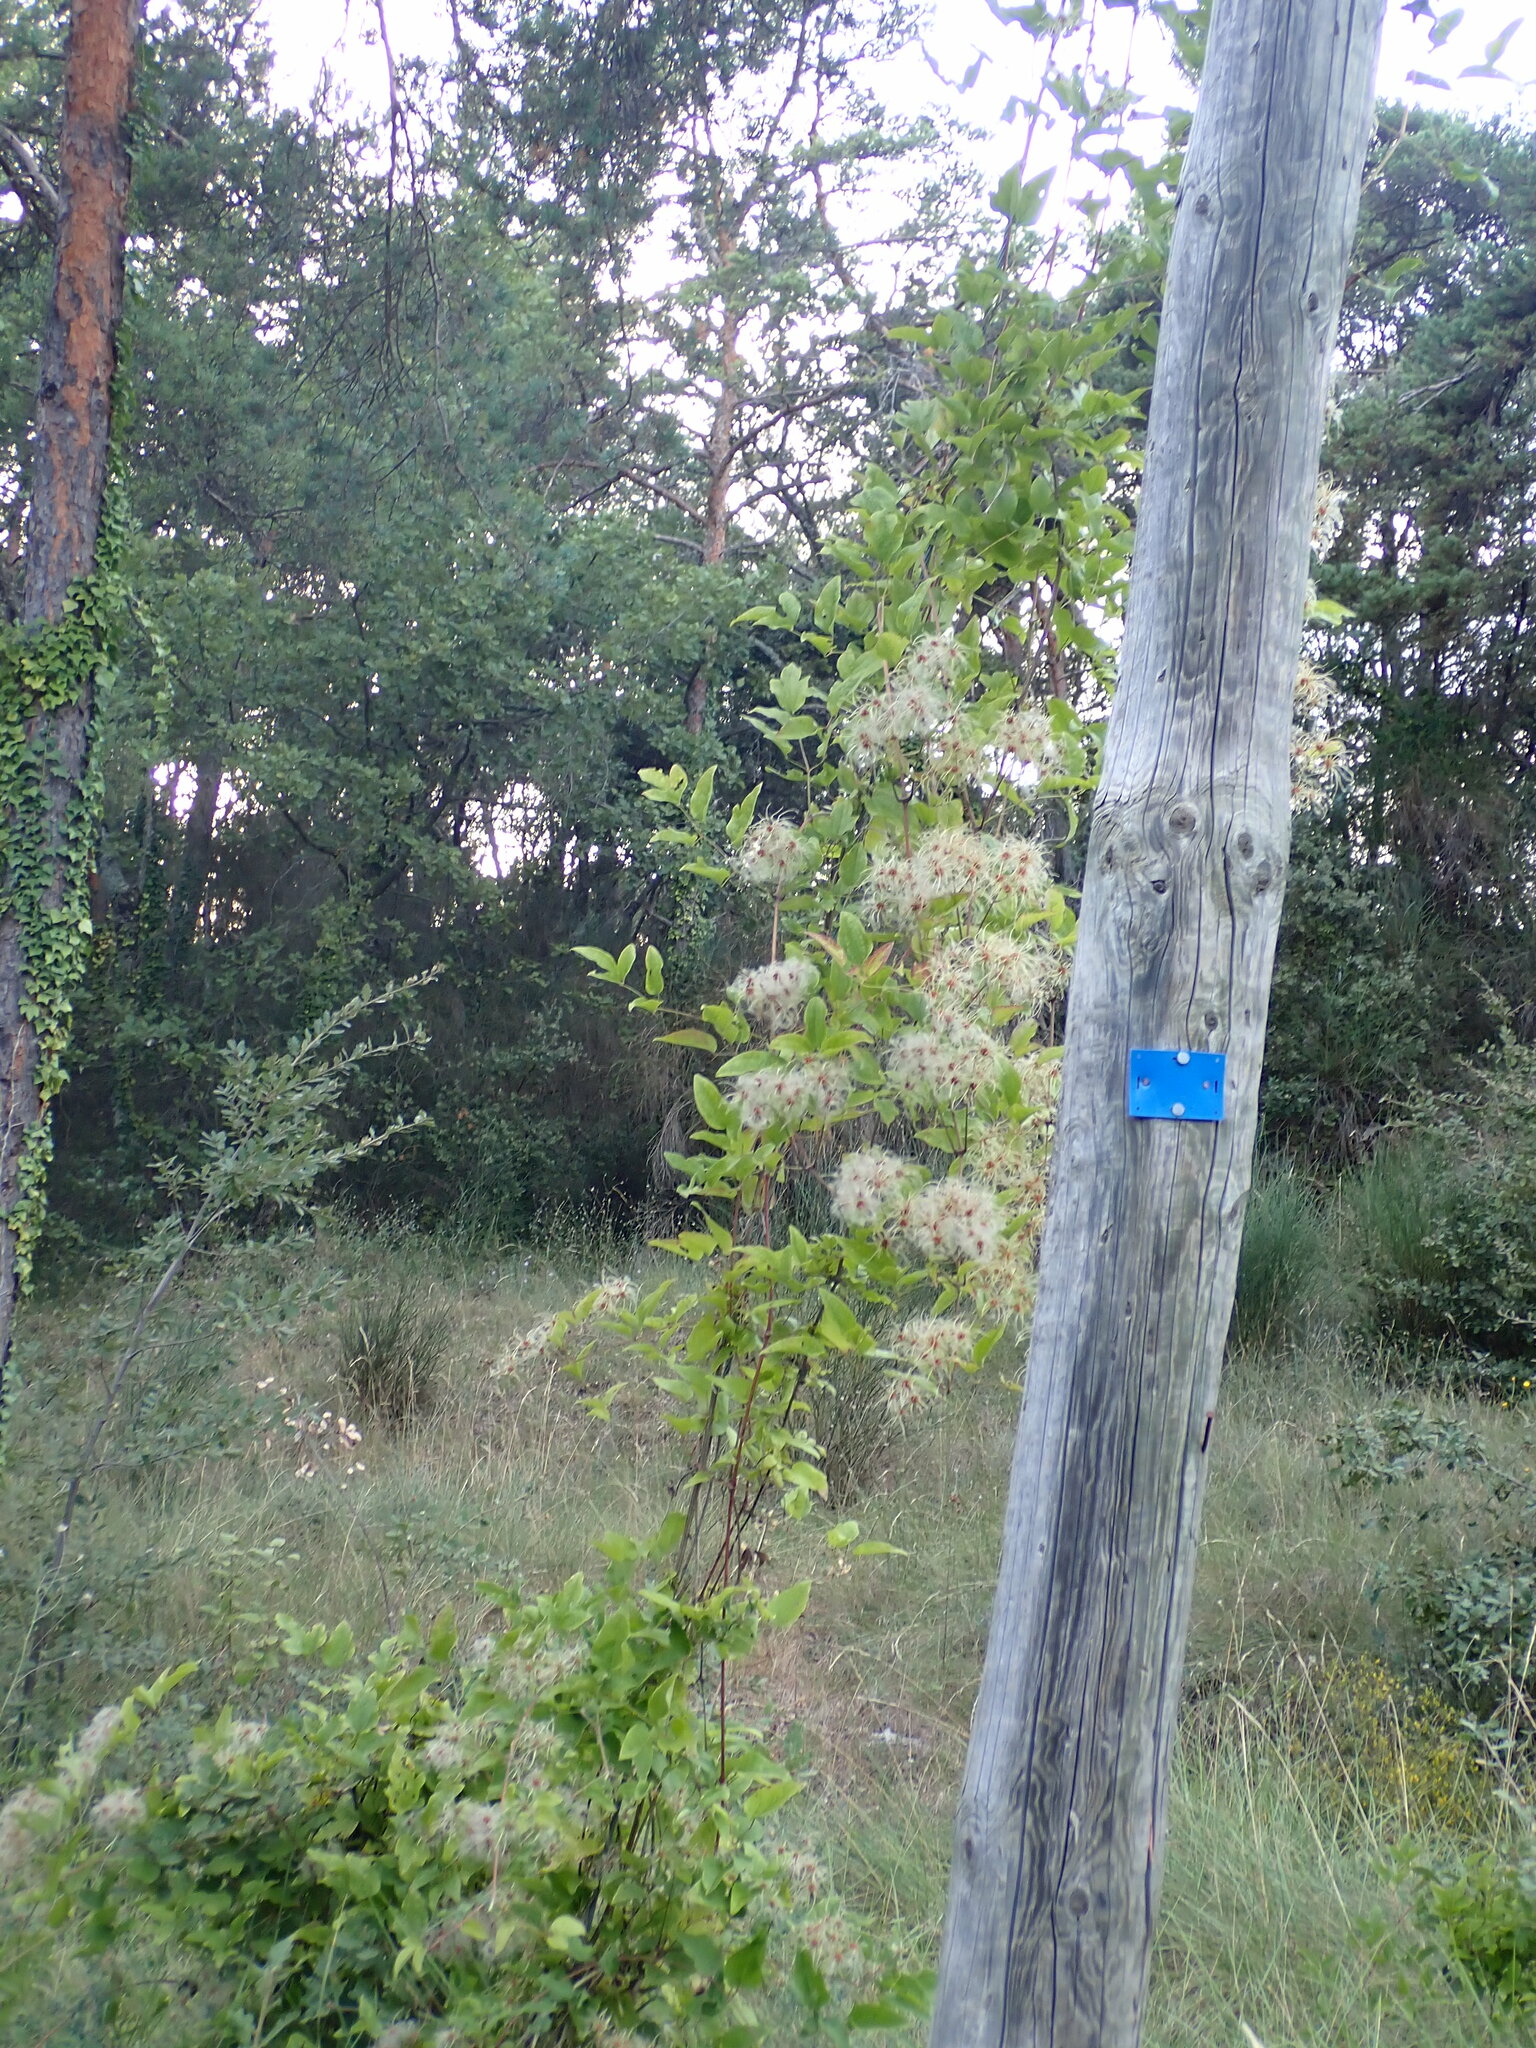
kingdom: Plantae
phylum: Tracheophyta
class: Magnoliopsida
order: Ranunculales
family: Ranunculaceae
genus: Clematis
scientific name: Clematis vitalba
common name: Evergreen clematis
